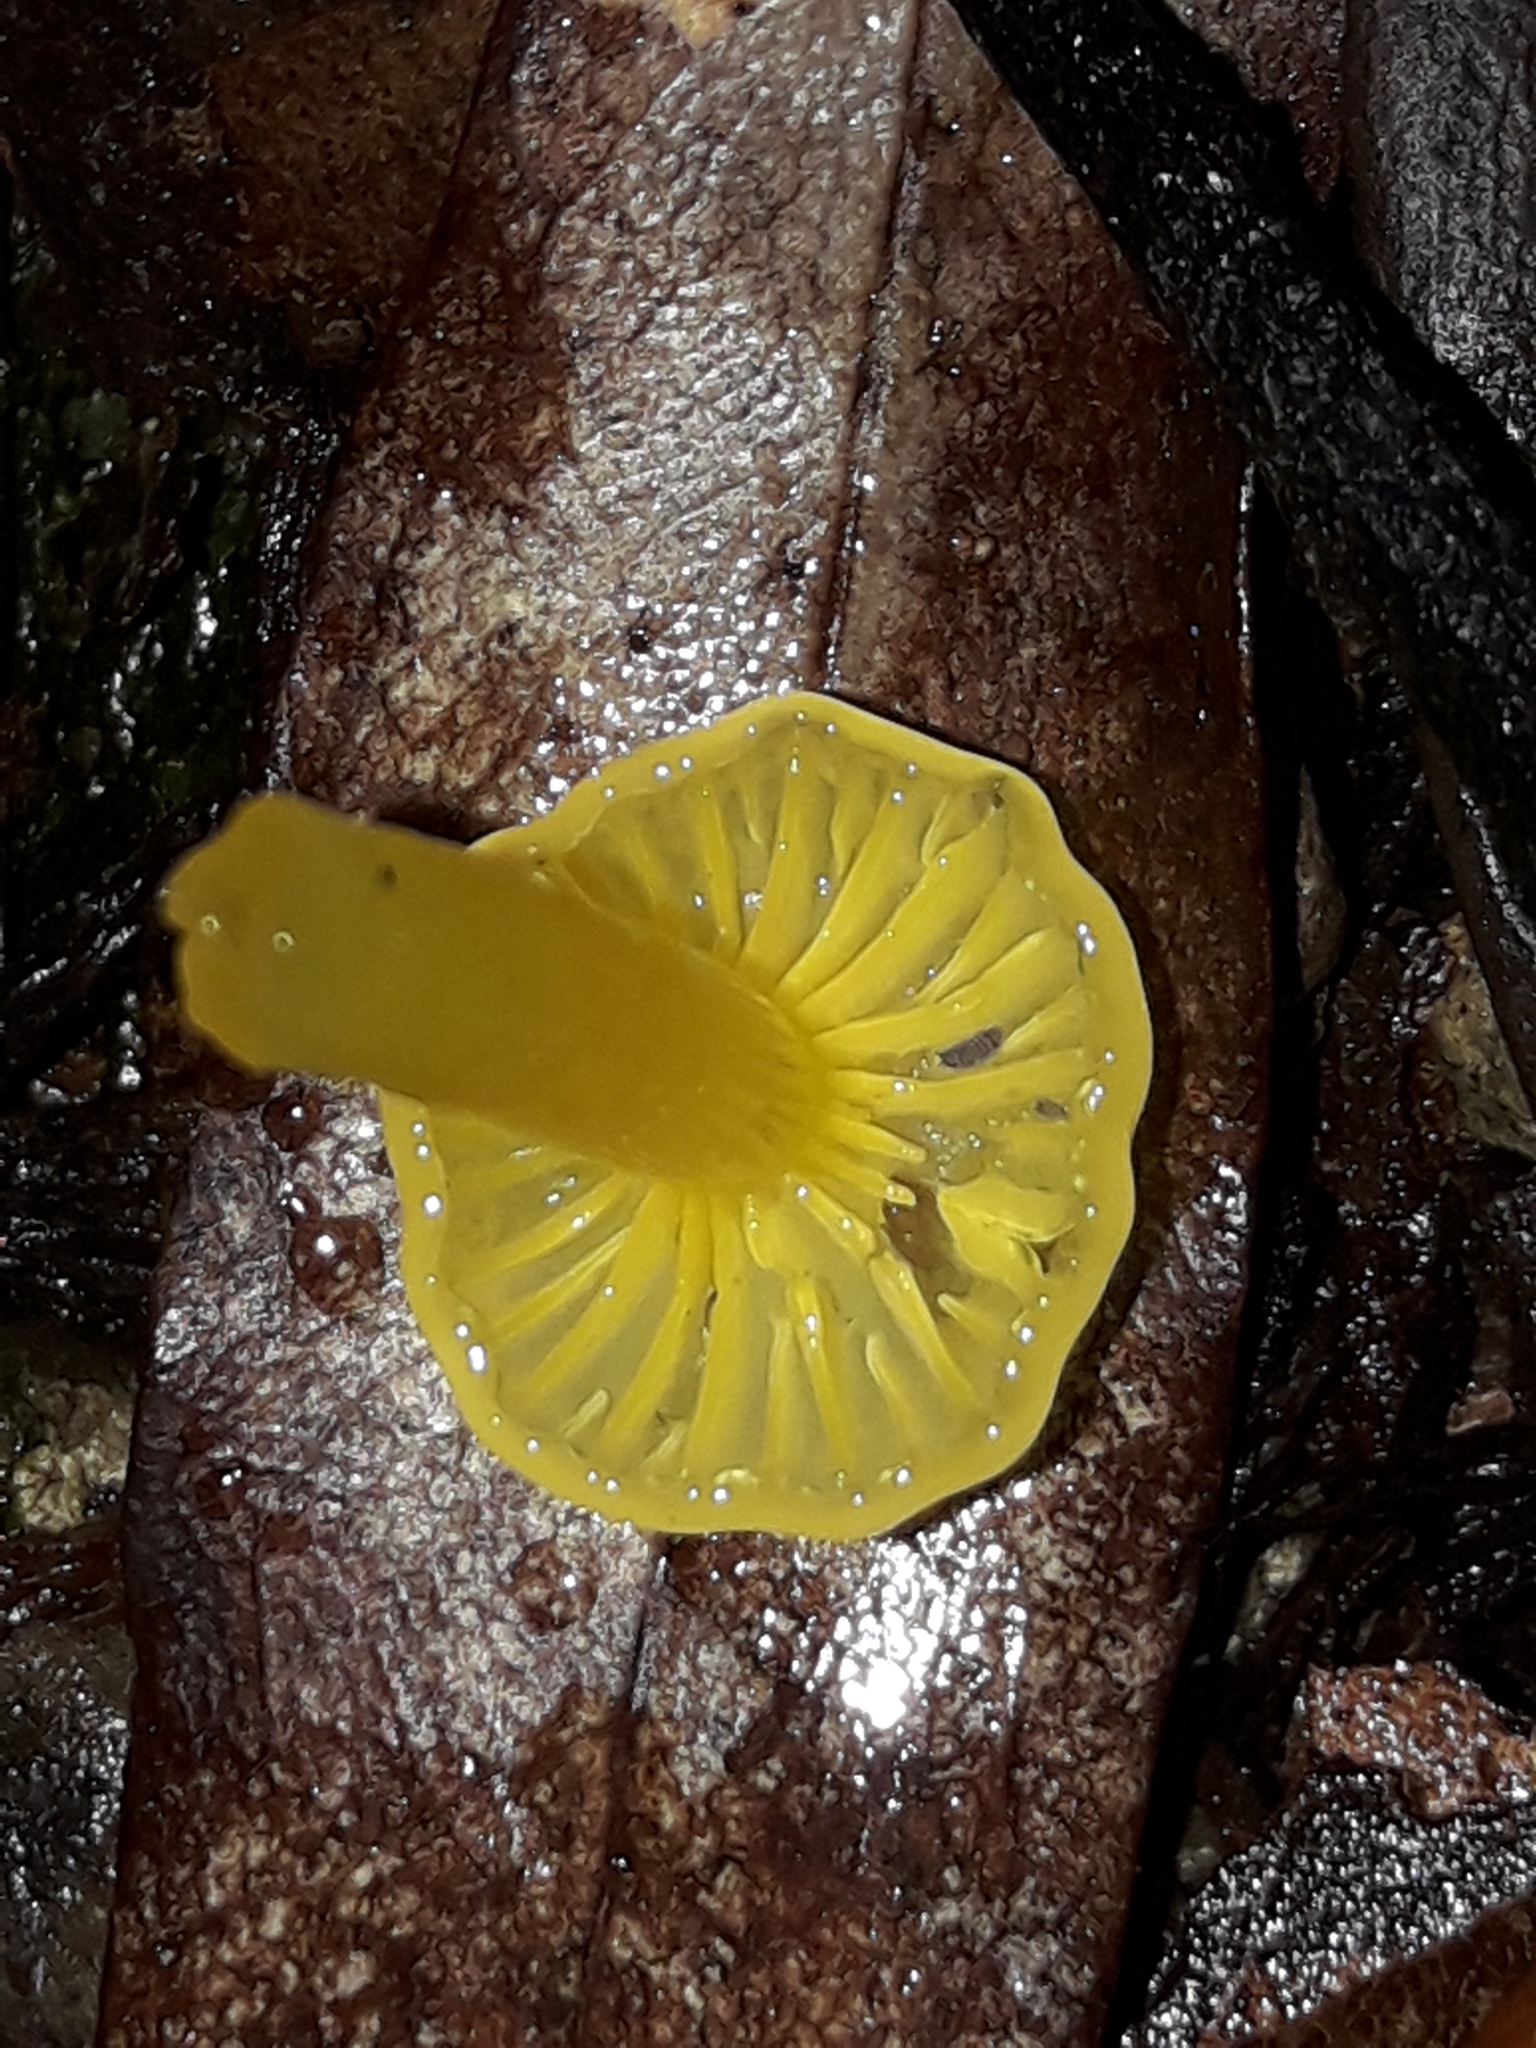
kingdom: Fungi
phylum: Basidiomycota
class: Agaricomycetes
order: Agaricales
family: Hygrophoraceae
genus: Gloioxanthomyces
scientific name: Gloioxanthomyces
